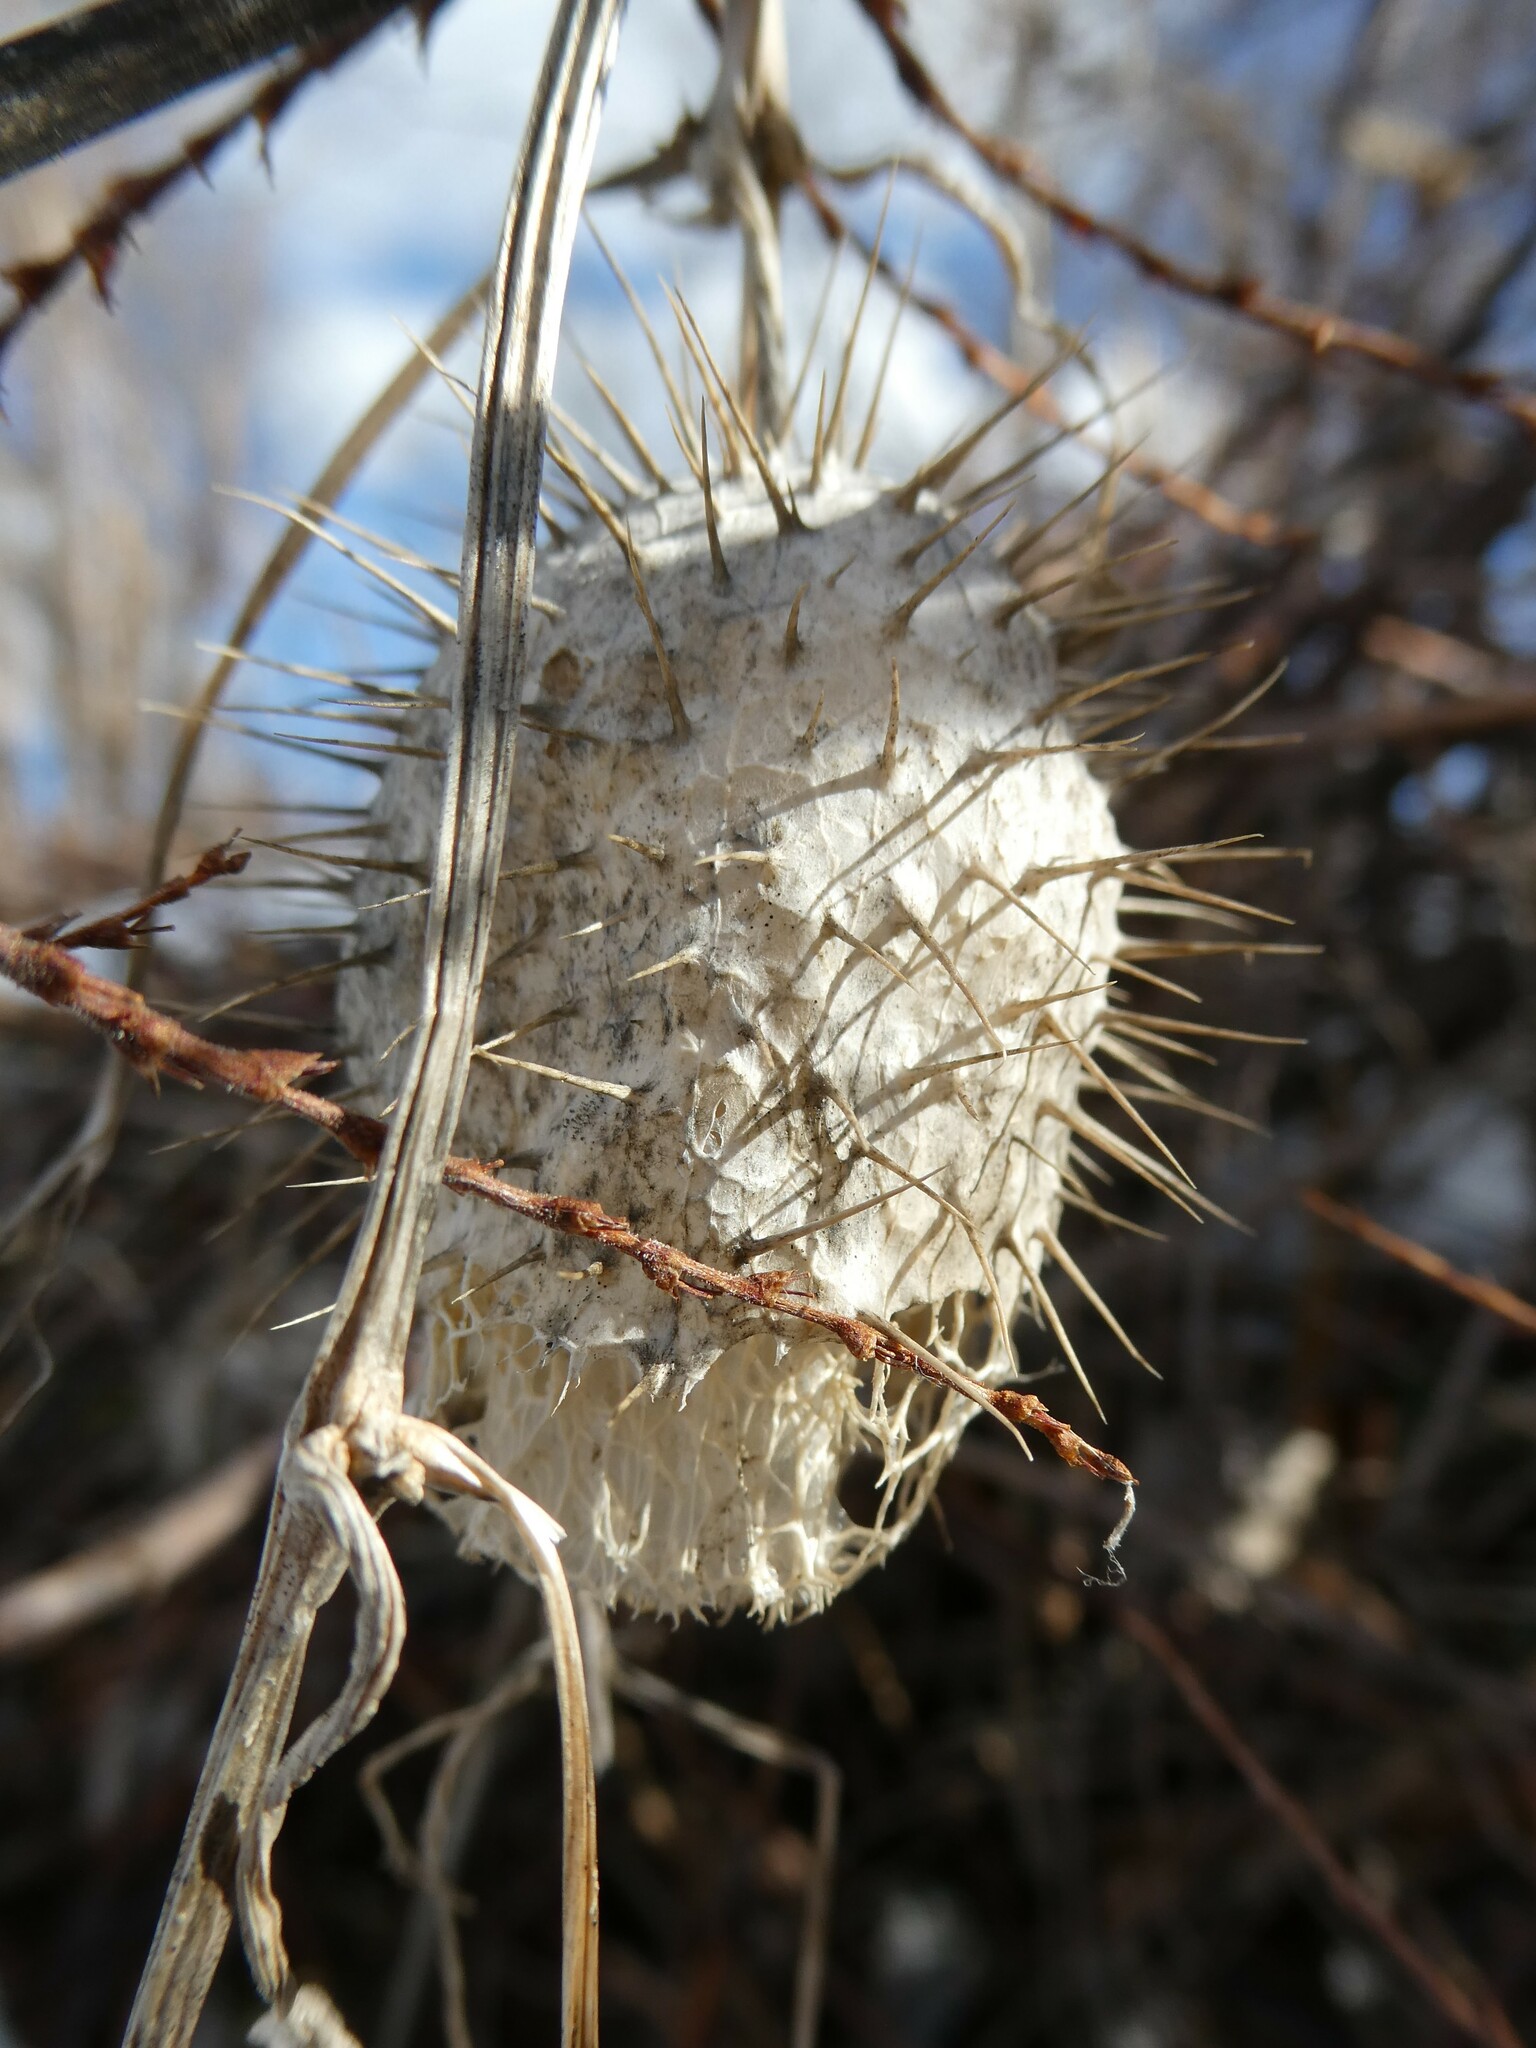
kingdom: Plantae
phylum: Tracheophyta
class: Magnoliopsida
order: Cucurbitales
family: Cucurbitaceae
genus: Echinocystis
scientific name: Echinocystis lobata
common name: Wild cucumber
